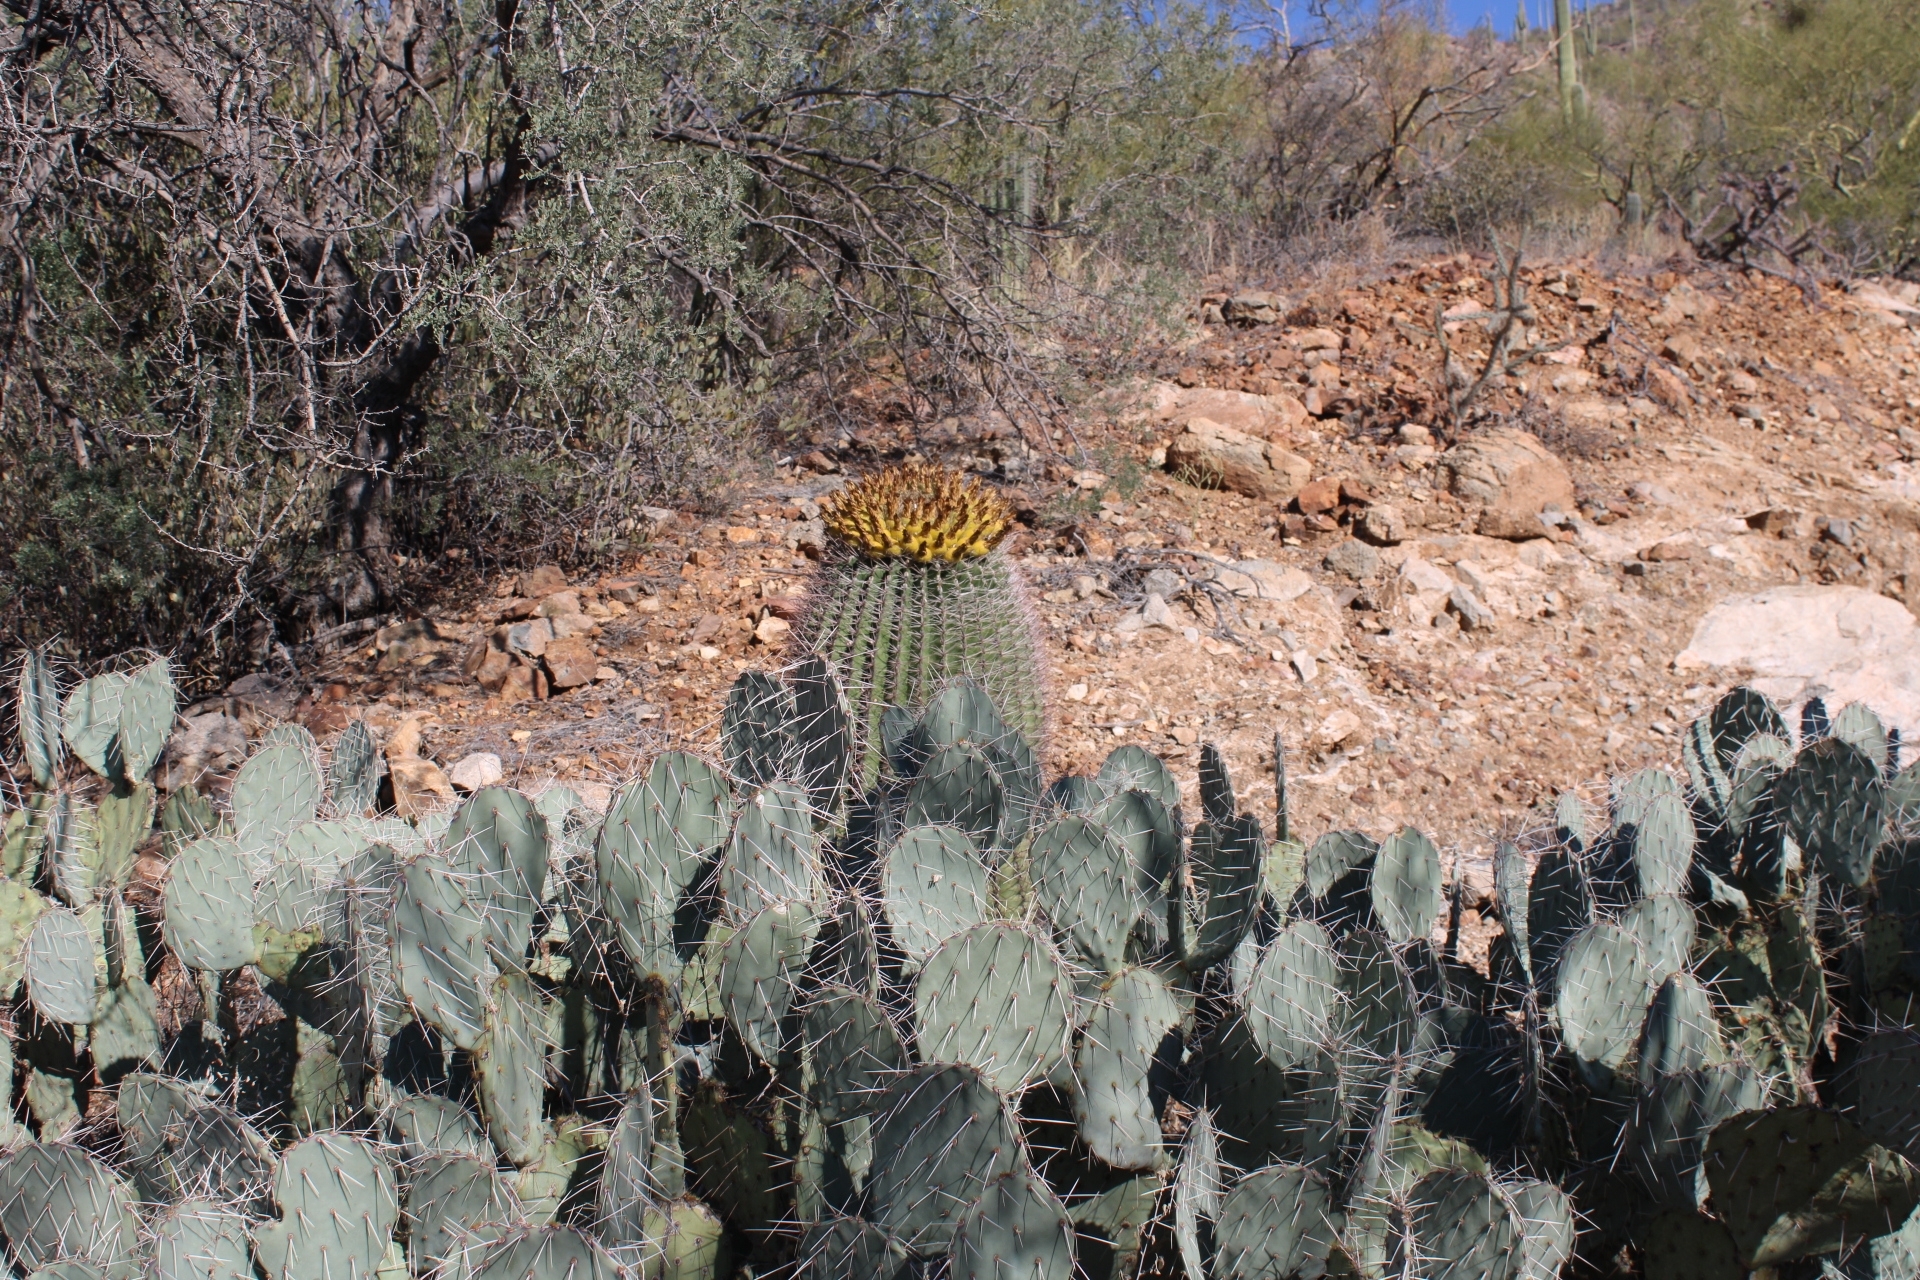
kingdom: Plantae
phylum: Tracheophyta
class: Magnoliopsida
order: Caryophyllales
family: Cactaceae
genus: Ferocactus
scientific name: Ferocactus wislizeni
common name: Candy barrel cactus
